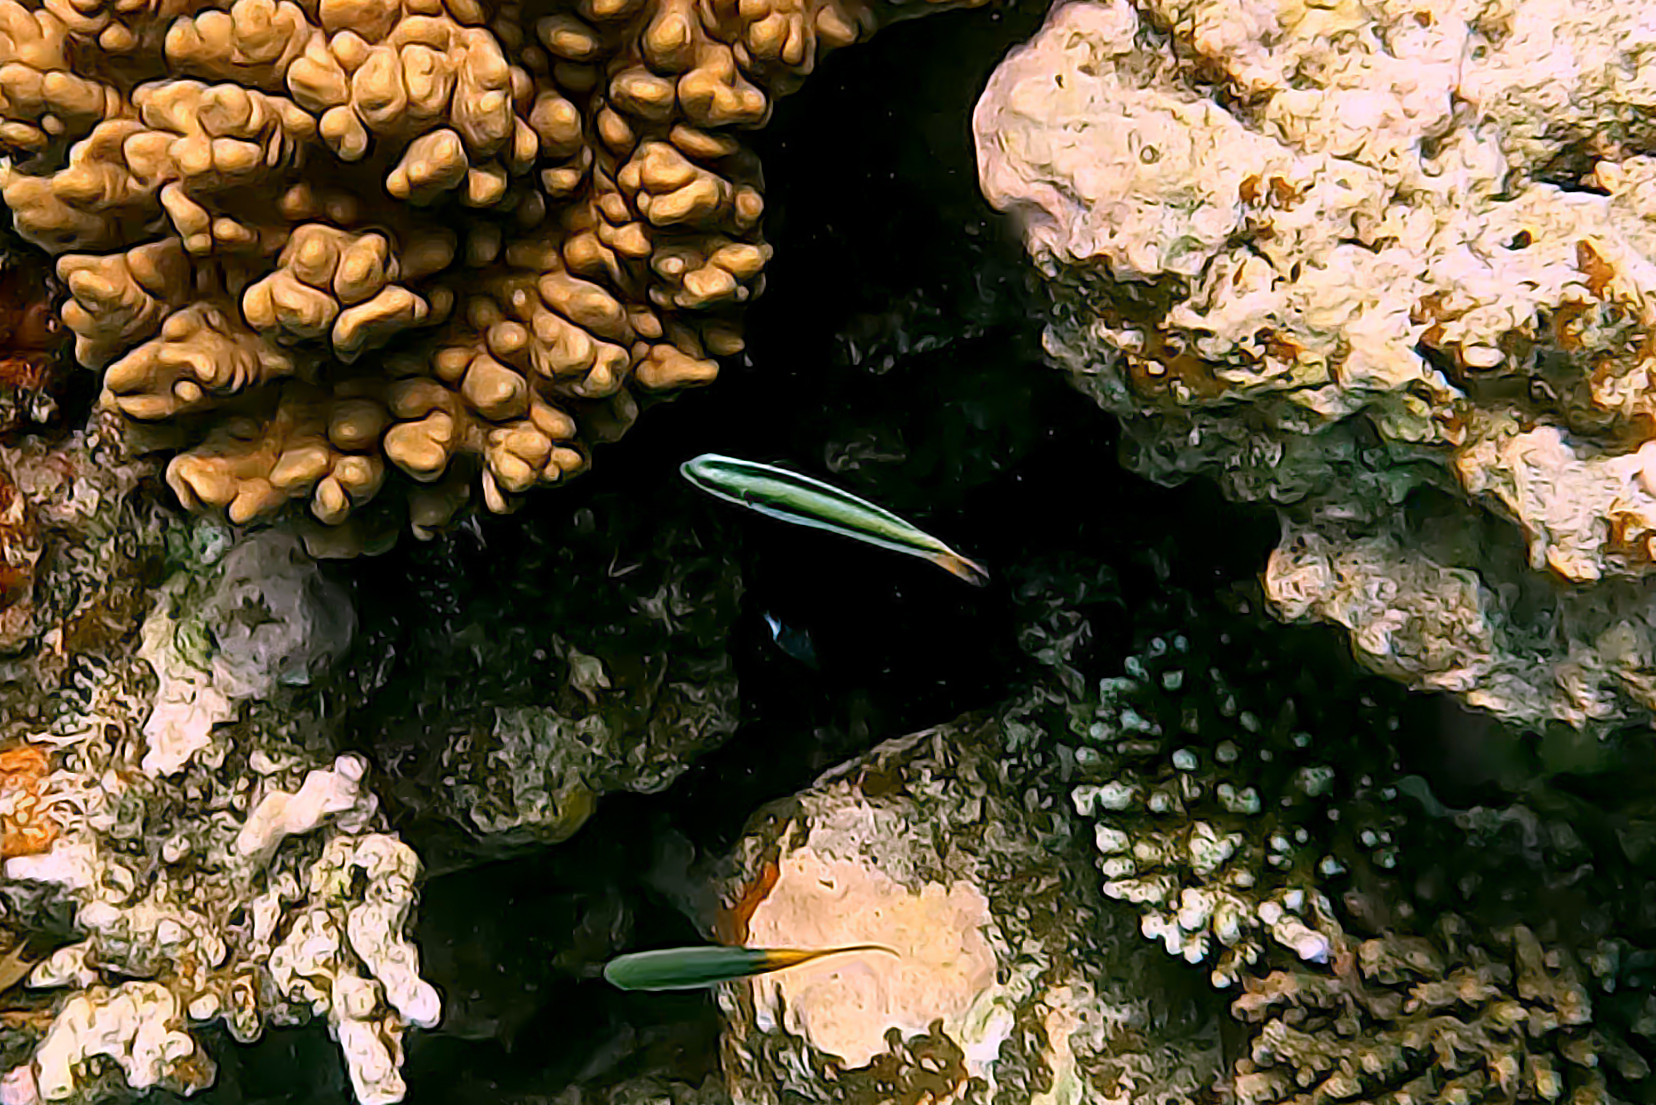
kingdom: Animalia
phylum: Chordata
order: Perciformes
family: Labridae
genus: Thalassoma
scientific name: Thalassoma amblycephalum
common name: Bluehead wrasse
